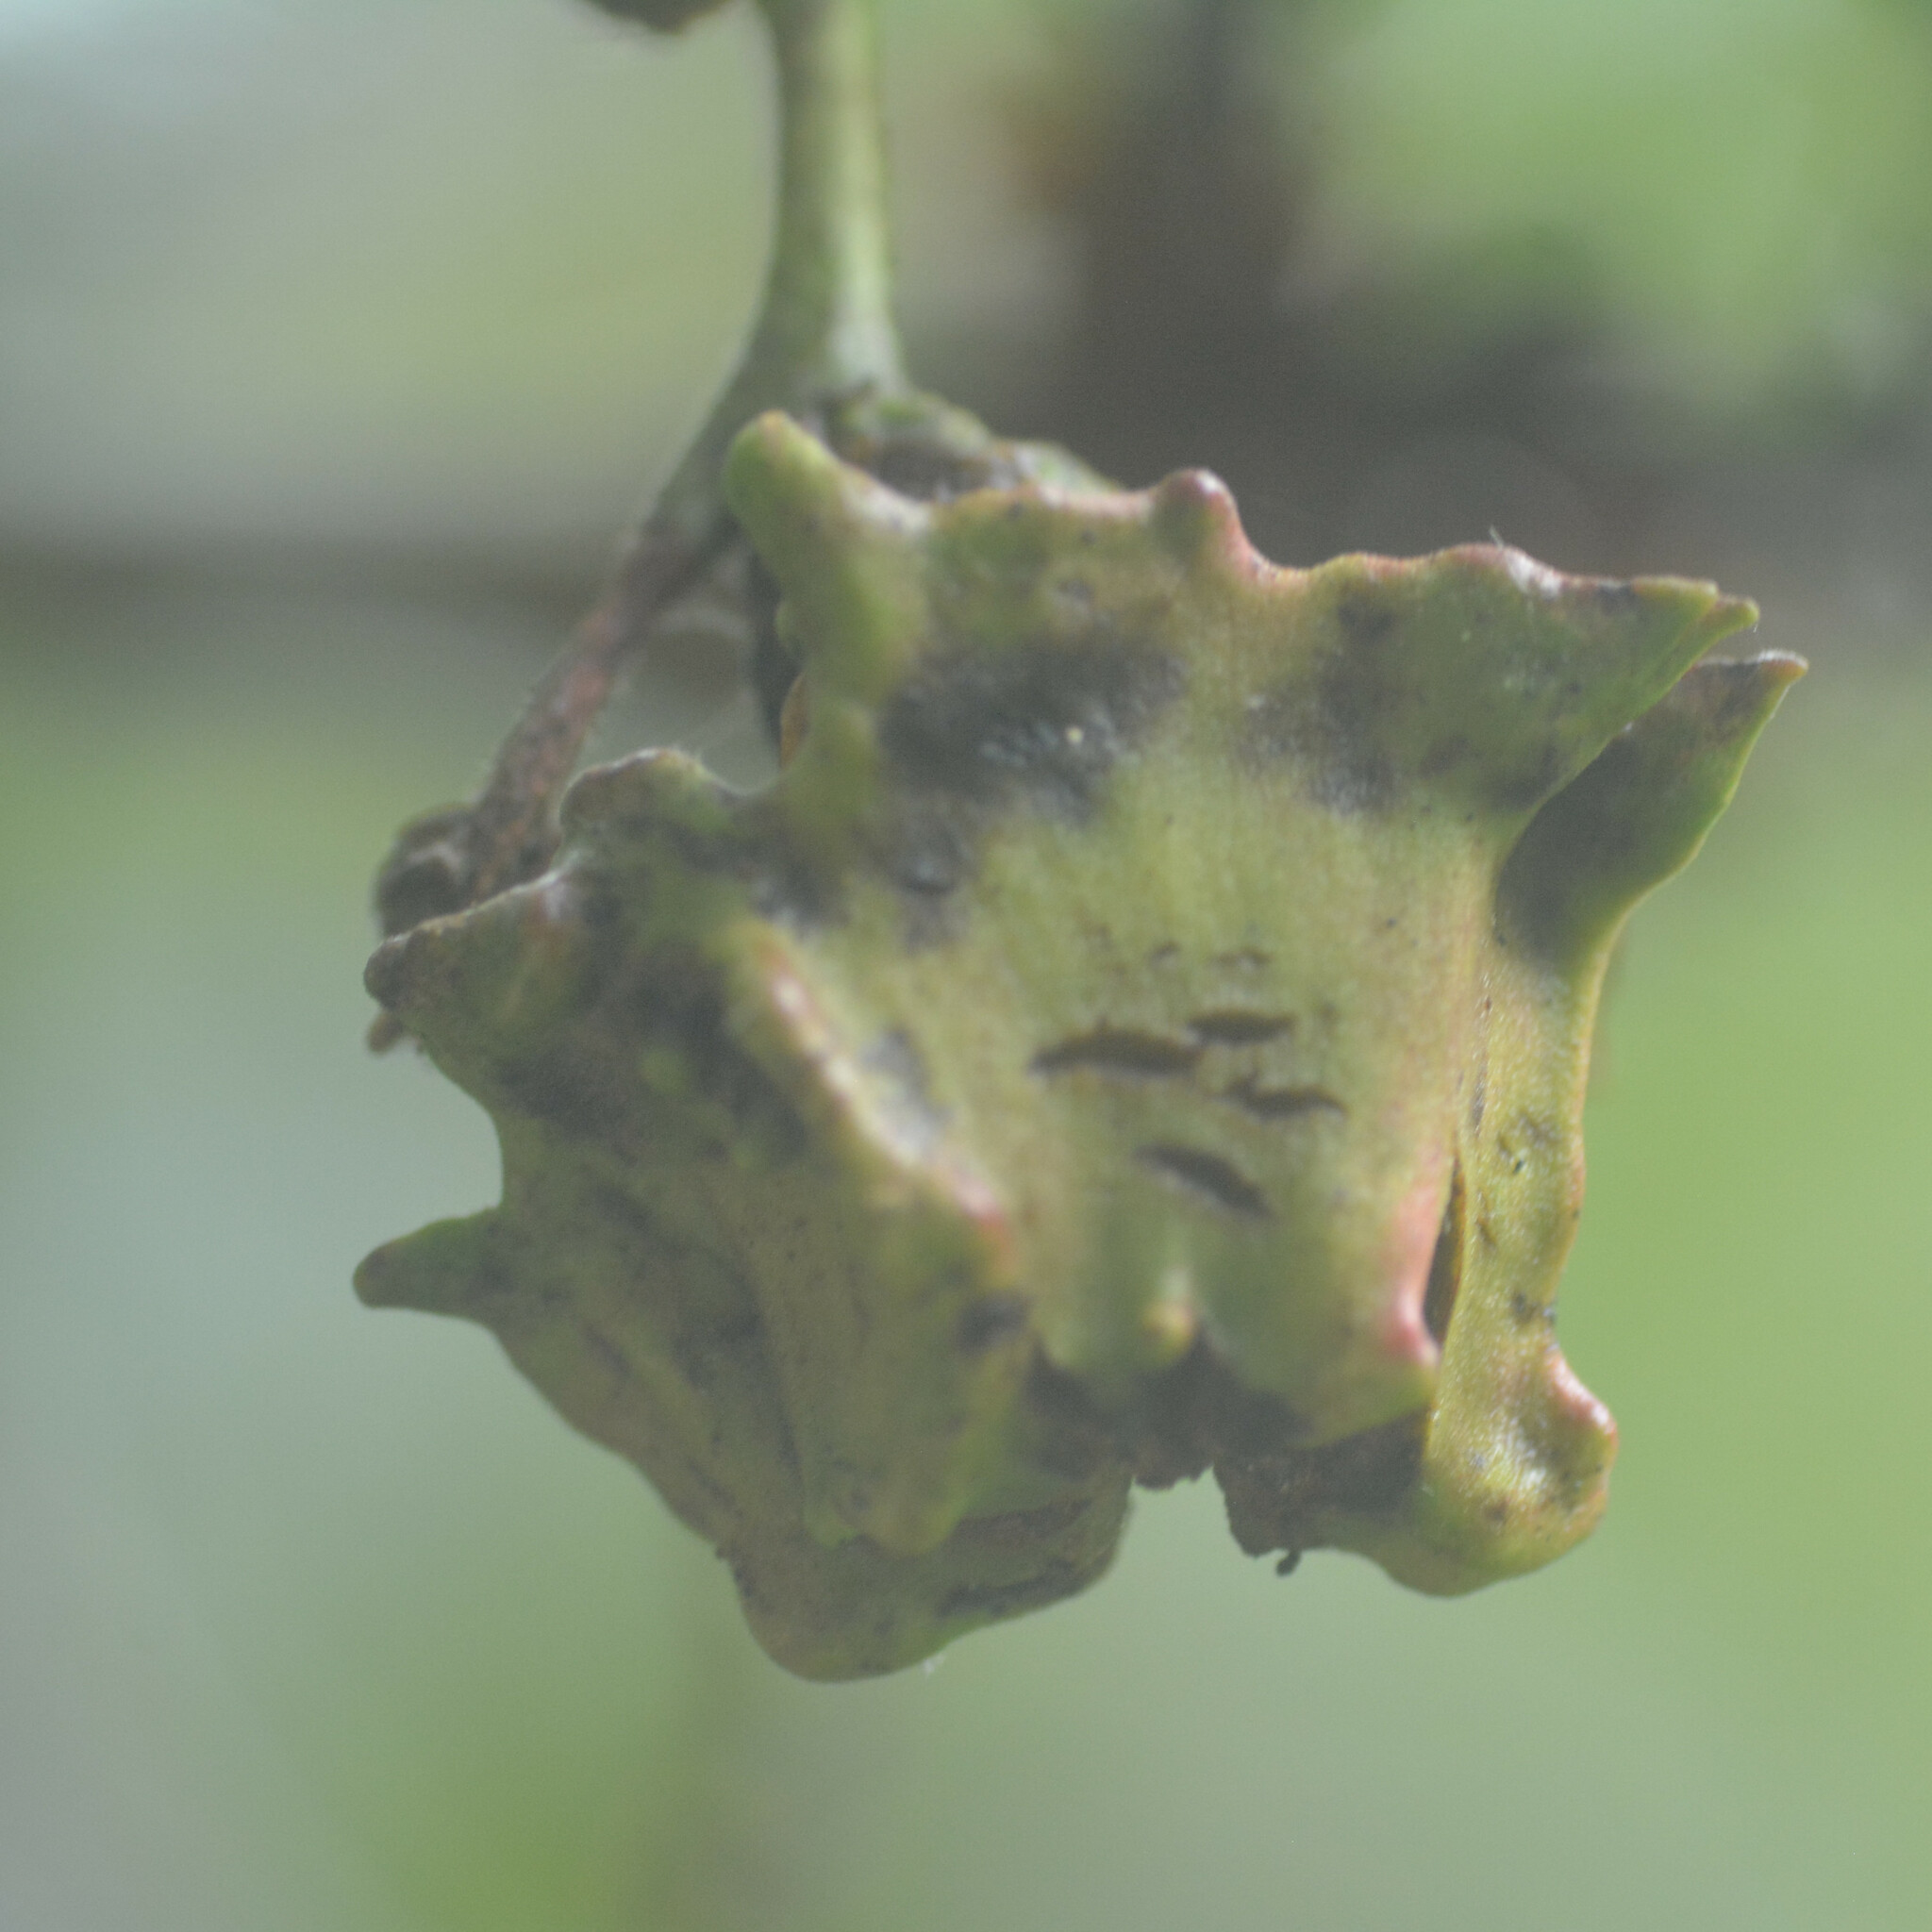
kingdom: Animalia
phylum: Arthropoda
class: Insecta
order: Hymenoptera
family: Cynipidae
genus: Andricus
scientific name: Andricus quercuscalicis
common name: Knopper gall
